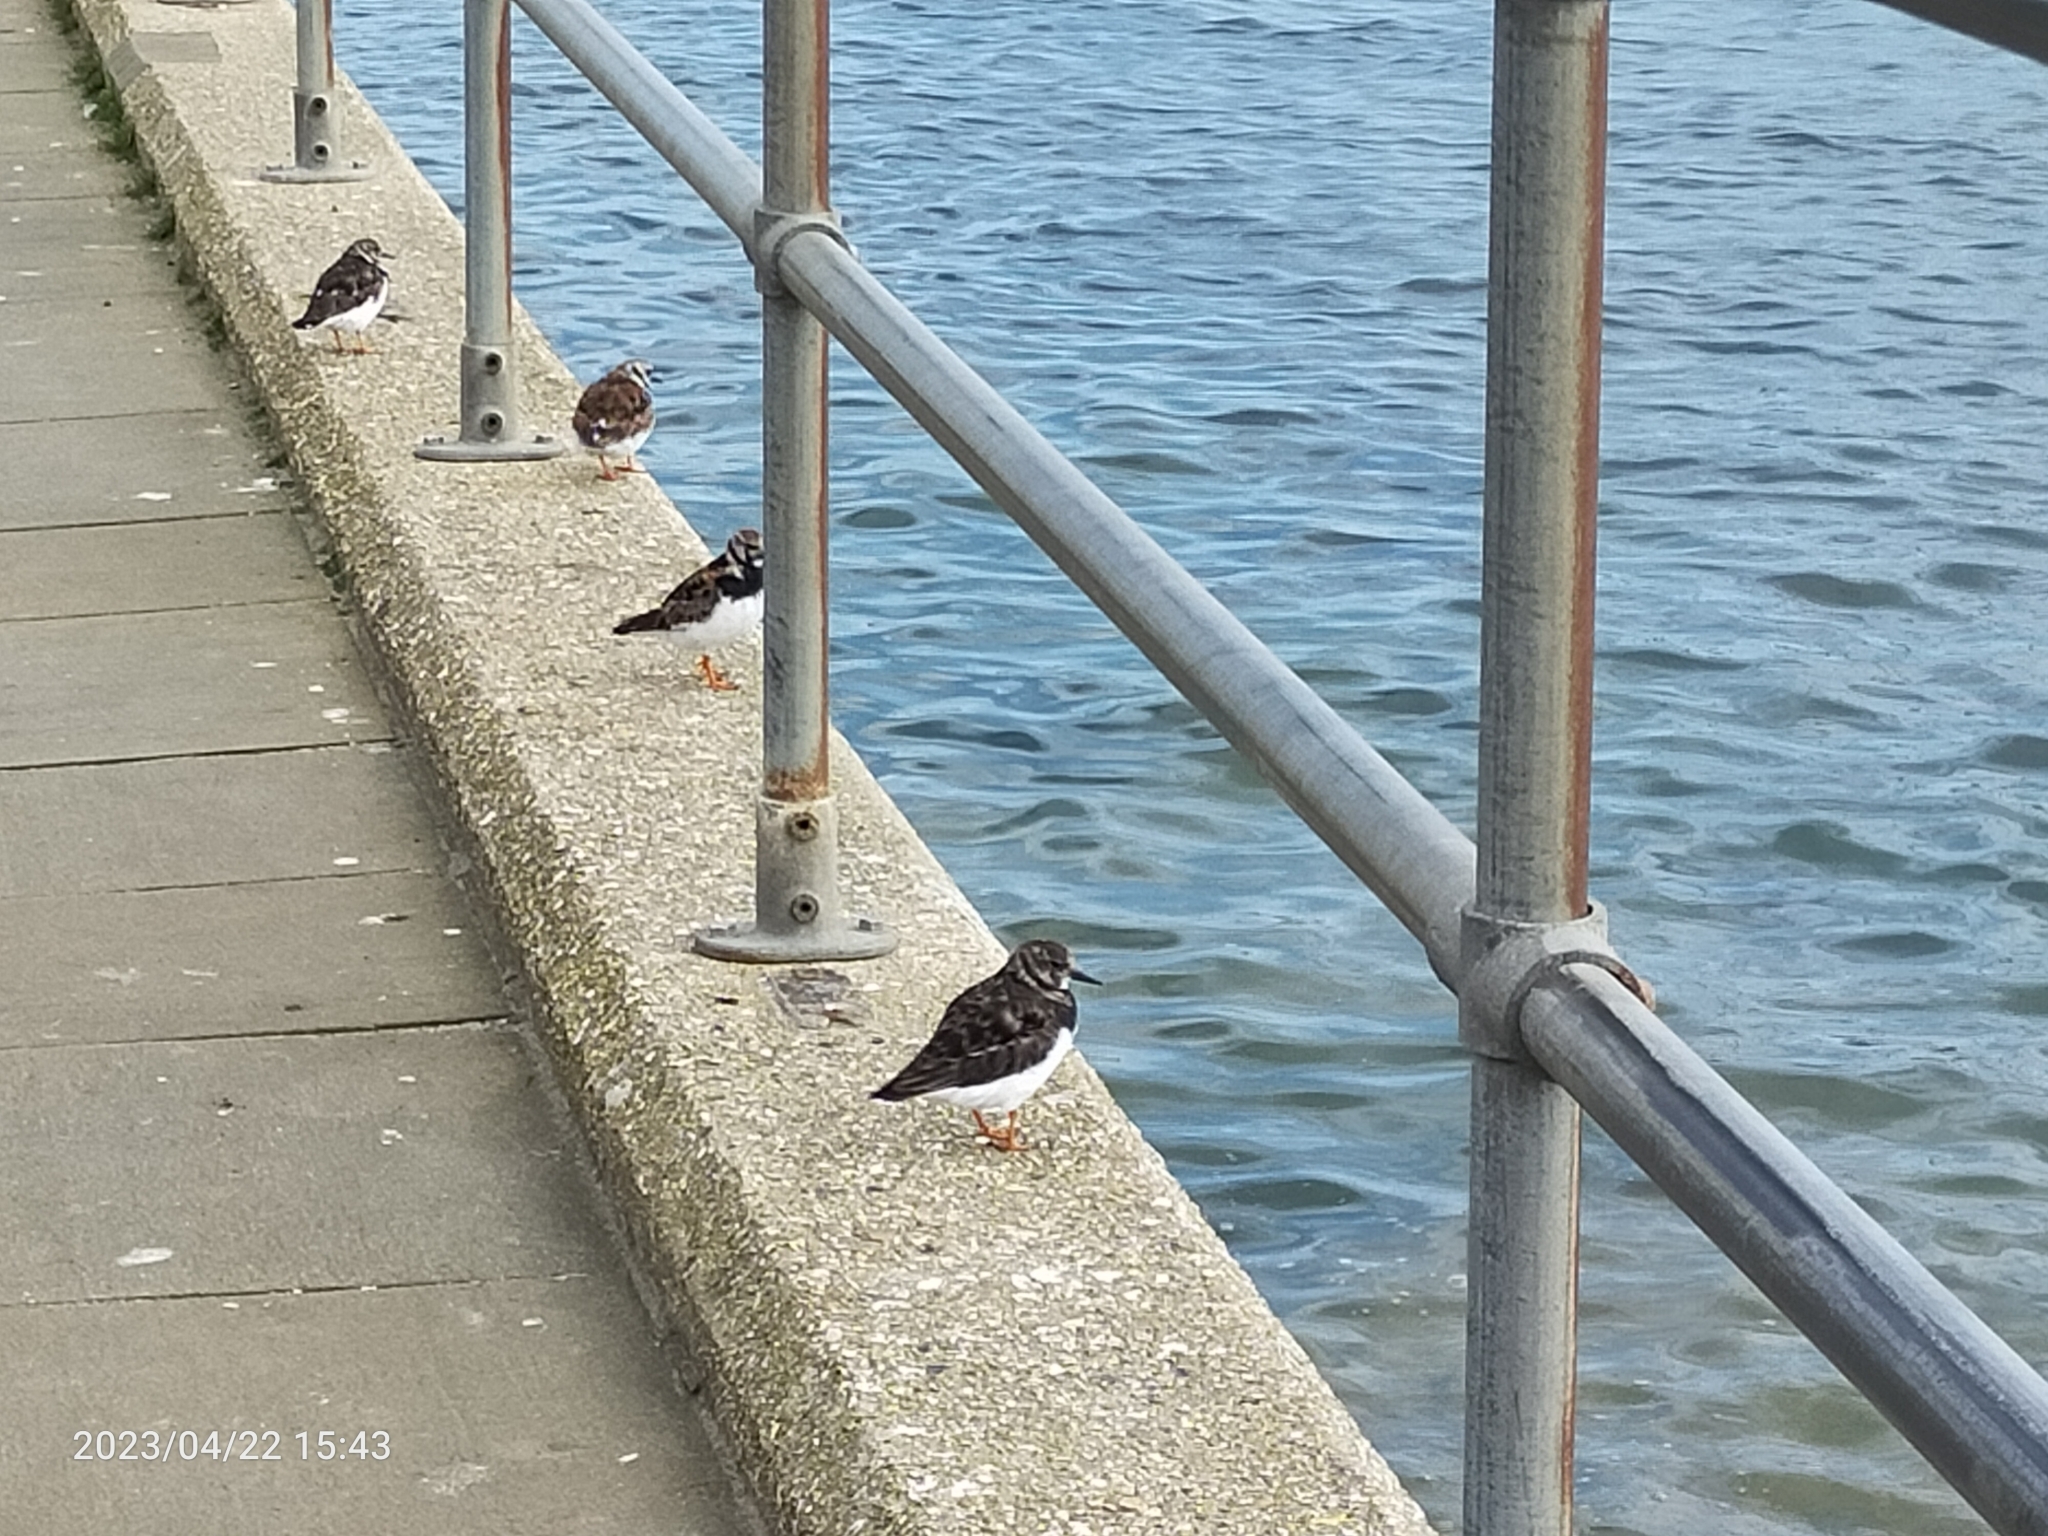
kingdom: Animalia
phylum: Chordata
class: Aves
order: Charadriiformes
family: Scolopacidae
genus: Arenaria
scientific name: Arenaria interpres
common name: Ruddy turnstone
